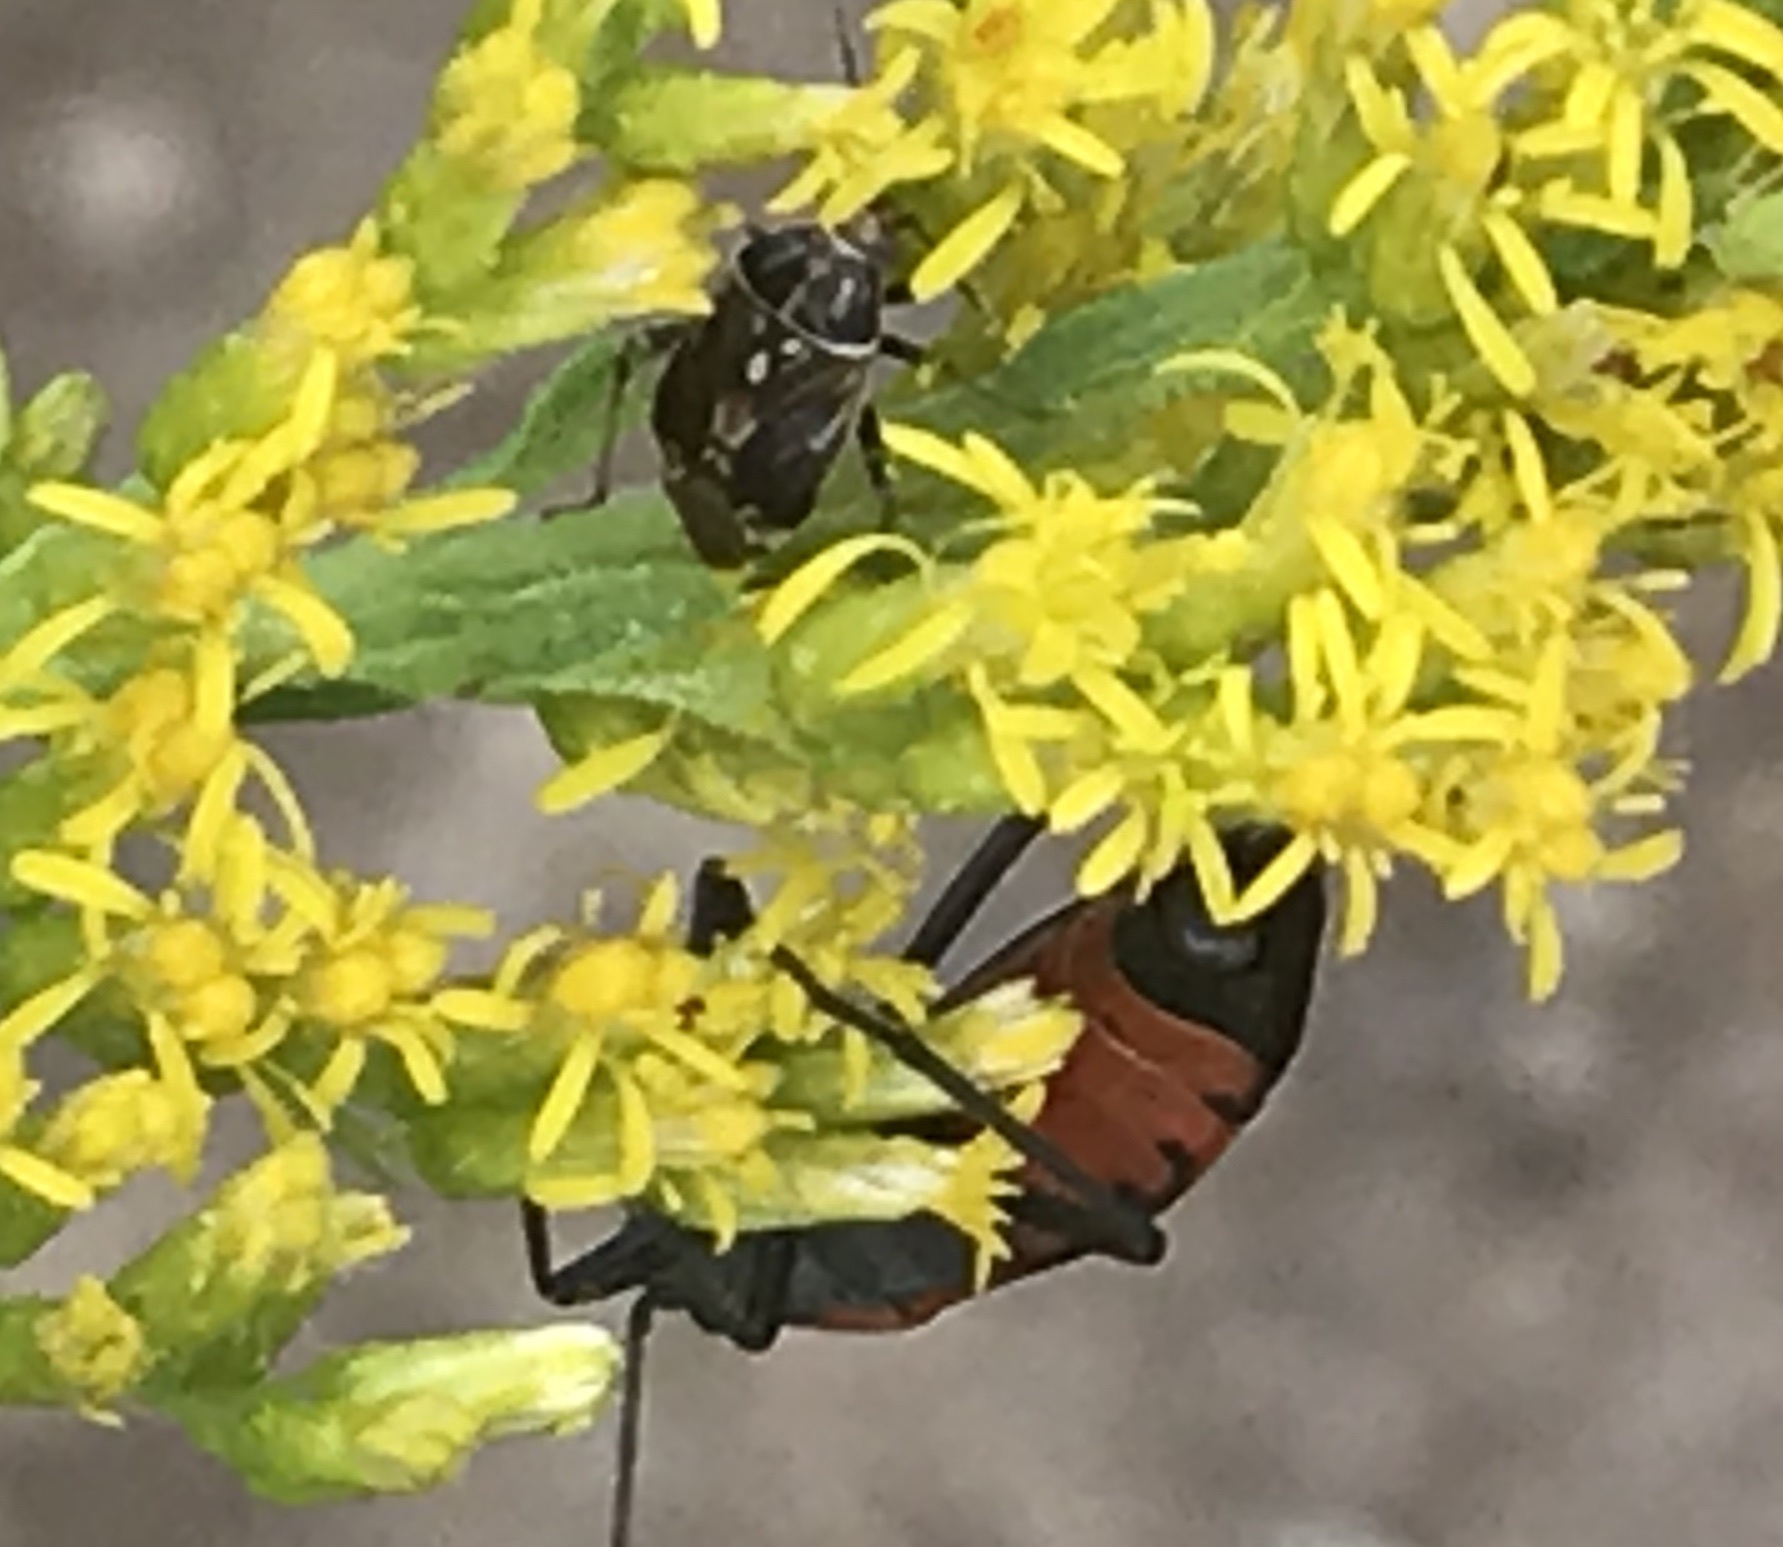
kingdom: Animalia
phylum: Arthropoda
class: Insecta
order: Hemiptera
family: Lygaeidae
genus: Lygaeus
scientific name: Lygaeus kalmii
